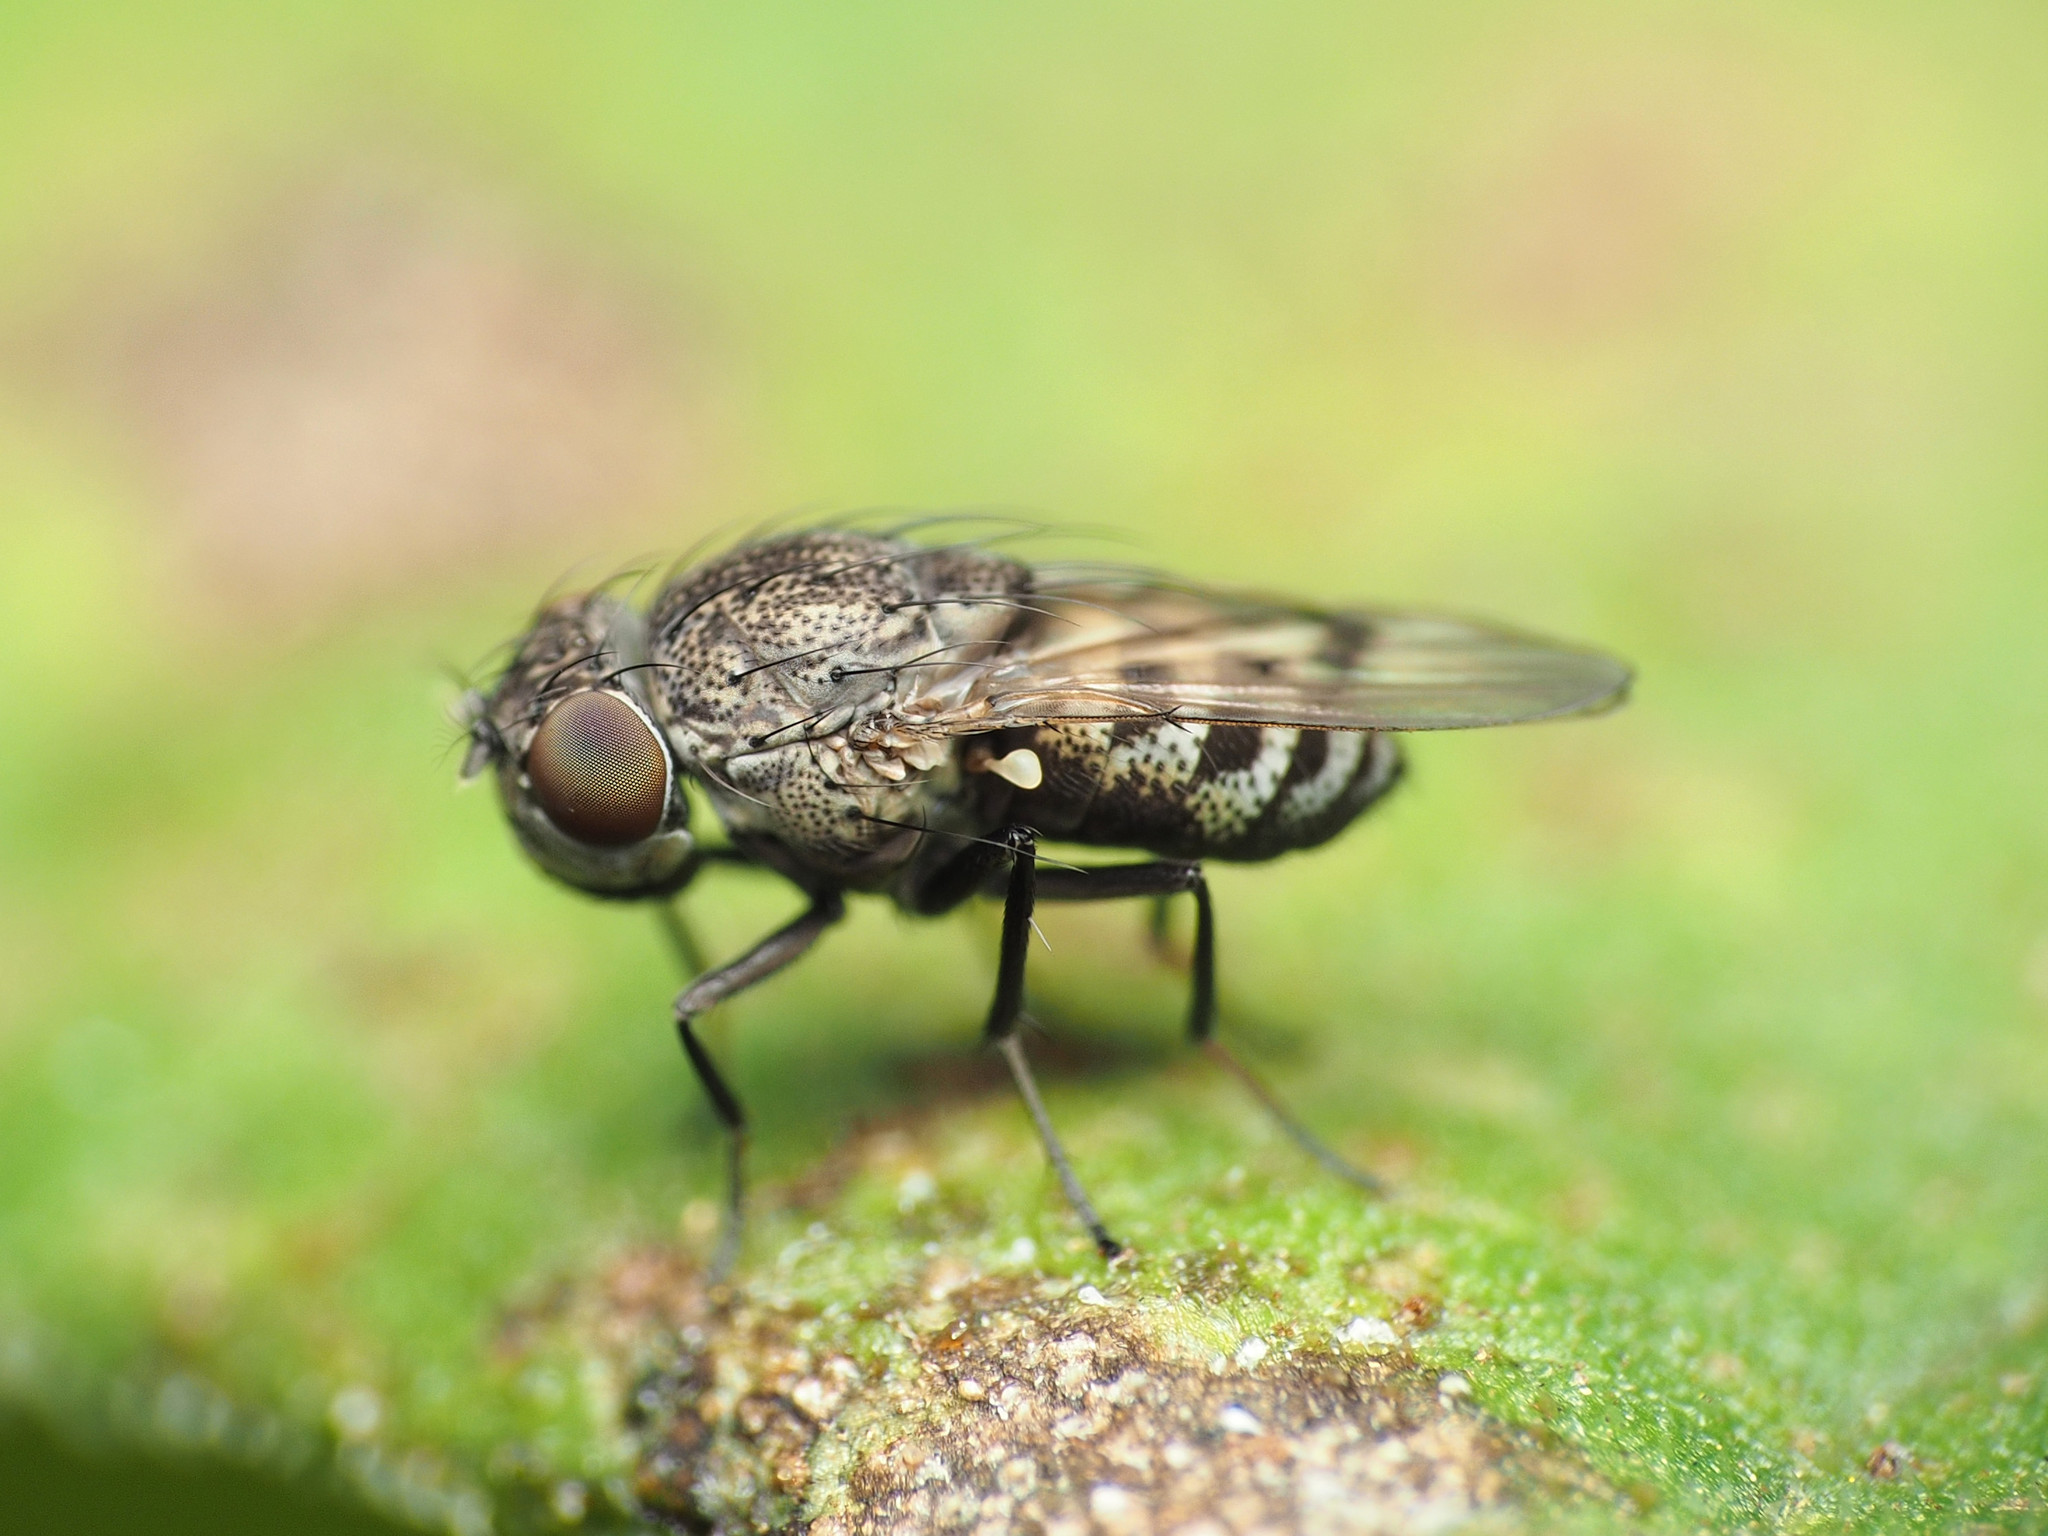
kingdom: Animalia
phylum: Arthropoda
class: Insecta
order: Diptera
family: Ephydridae
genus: Paralimna
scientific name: Paralimna punctipennis
